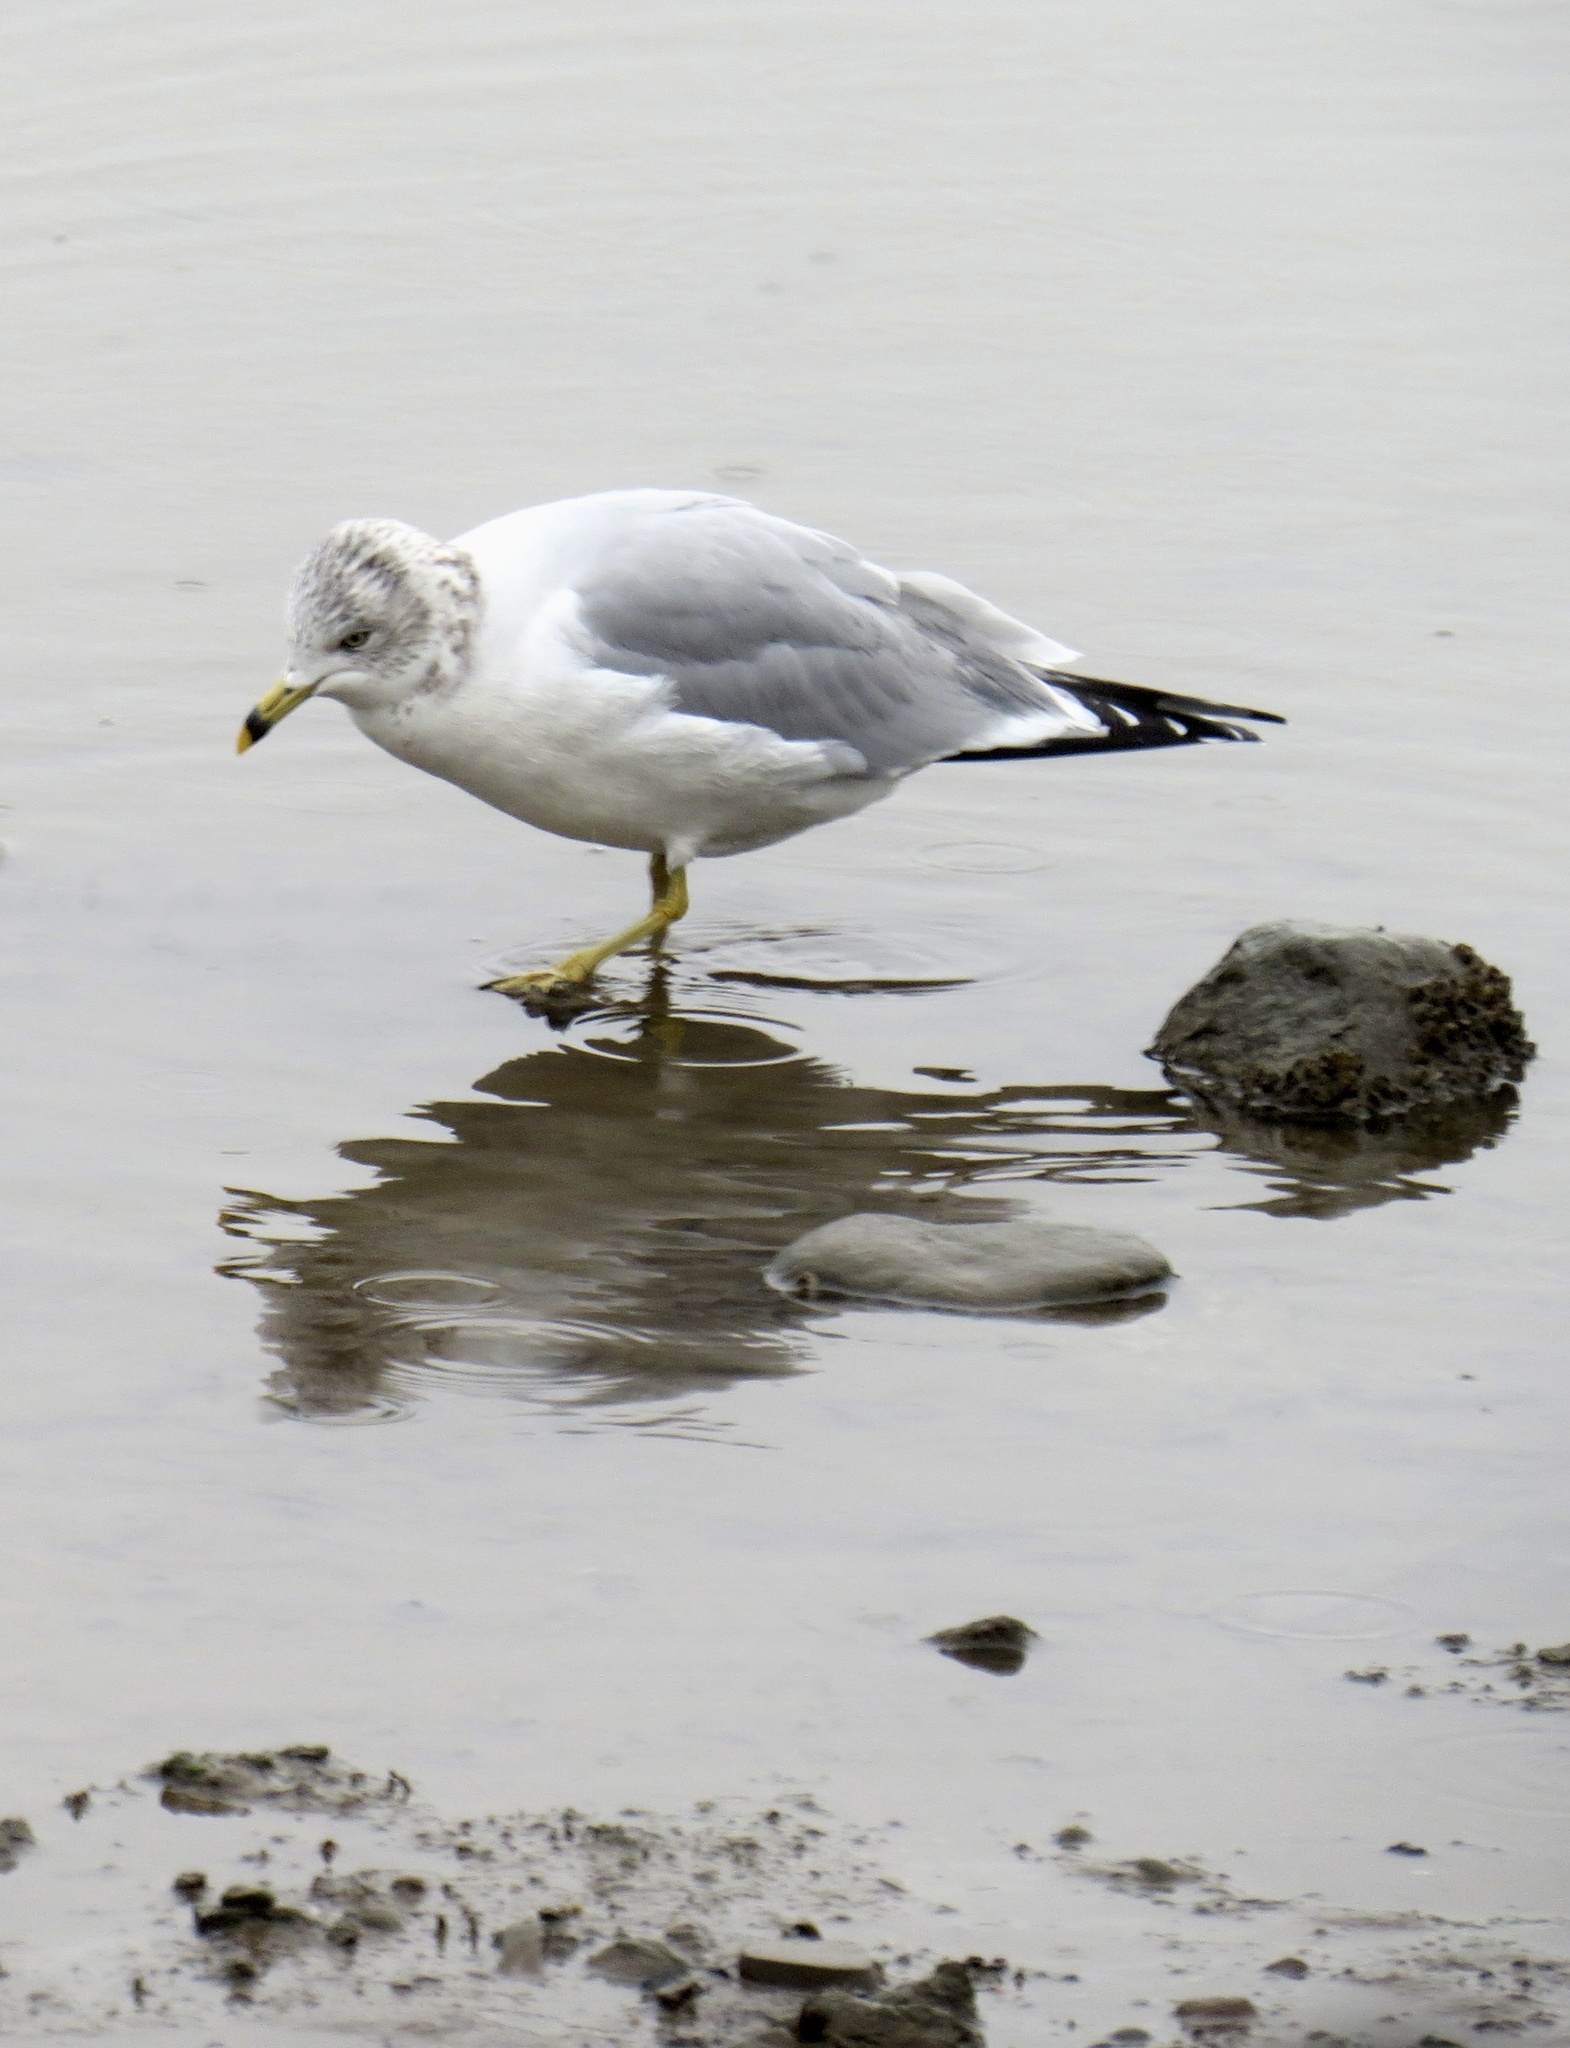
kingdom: Animalia
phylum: Chordata
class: Aves
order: Charadriiformes
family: Laridae
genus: Larus
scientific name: Larus delawarensis
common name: Ring-billed gull
